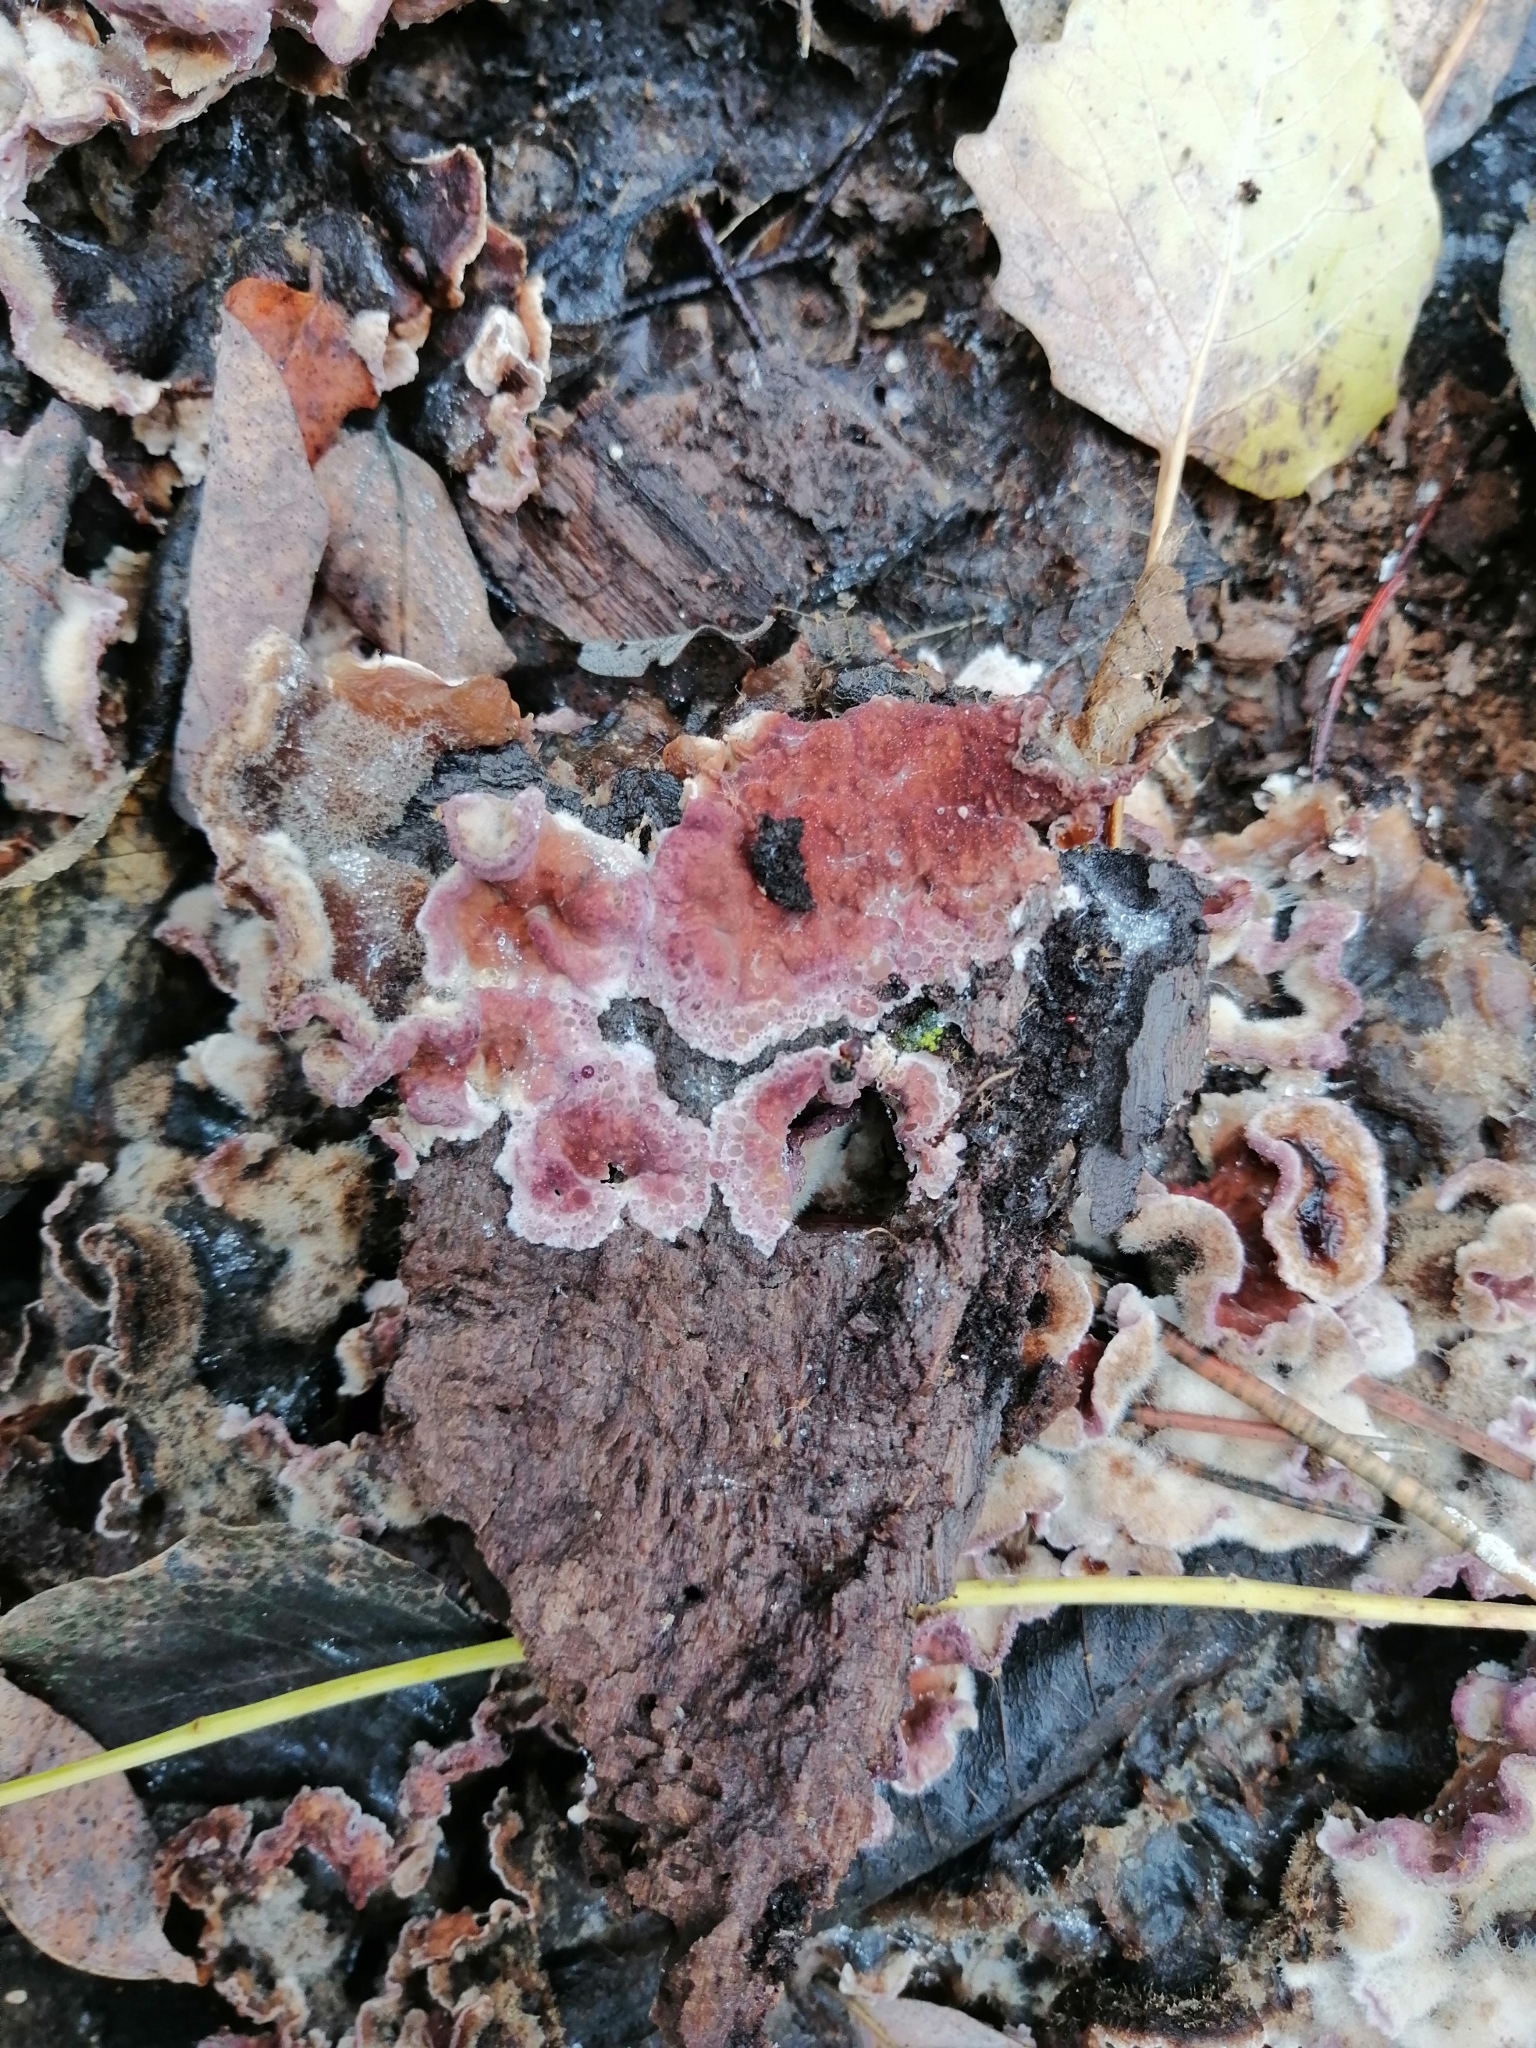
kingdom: Fungi
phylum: Basidiomycota
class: Agaricomycetes
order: Agaricales
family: Cyphellaceae
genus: Chondrostereum
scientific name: Chondrostereum purpureum
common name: Silver leaf disease
